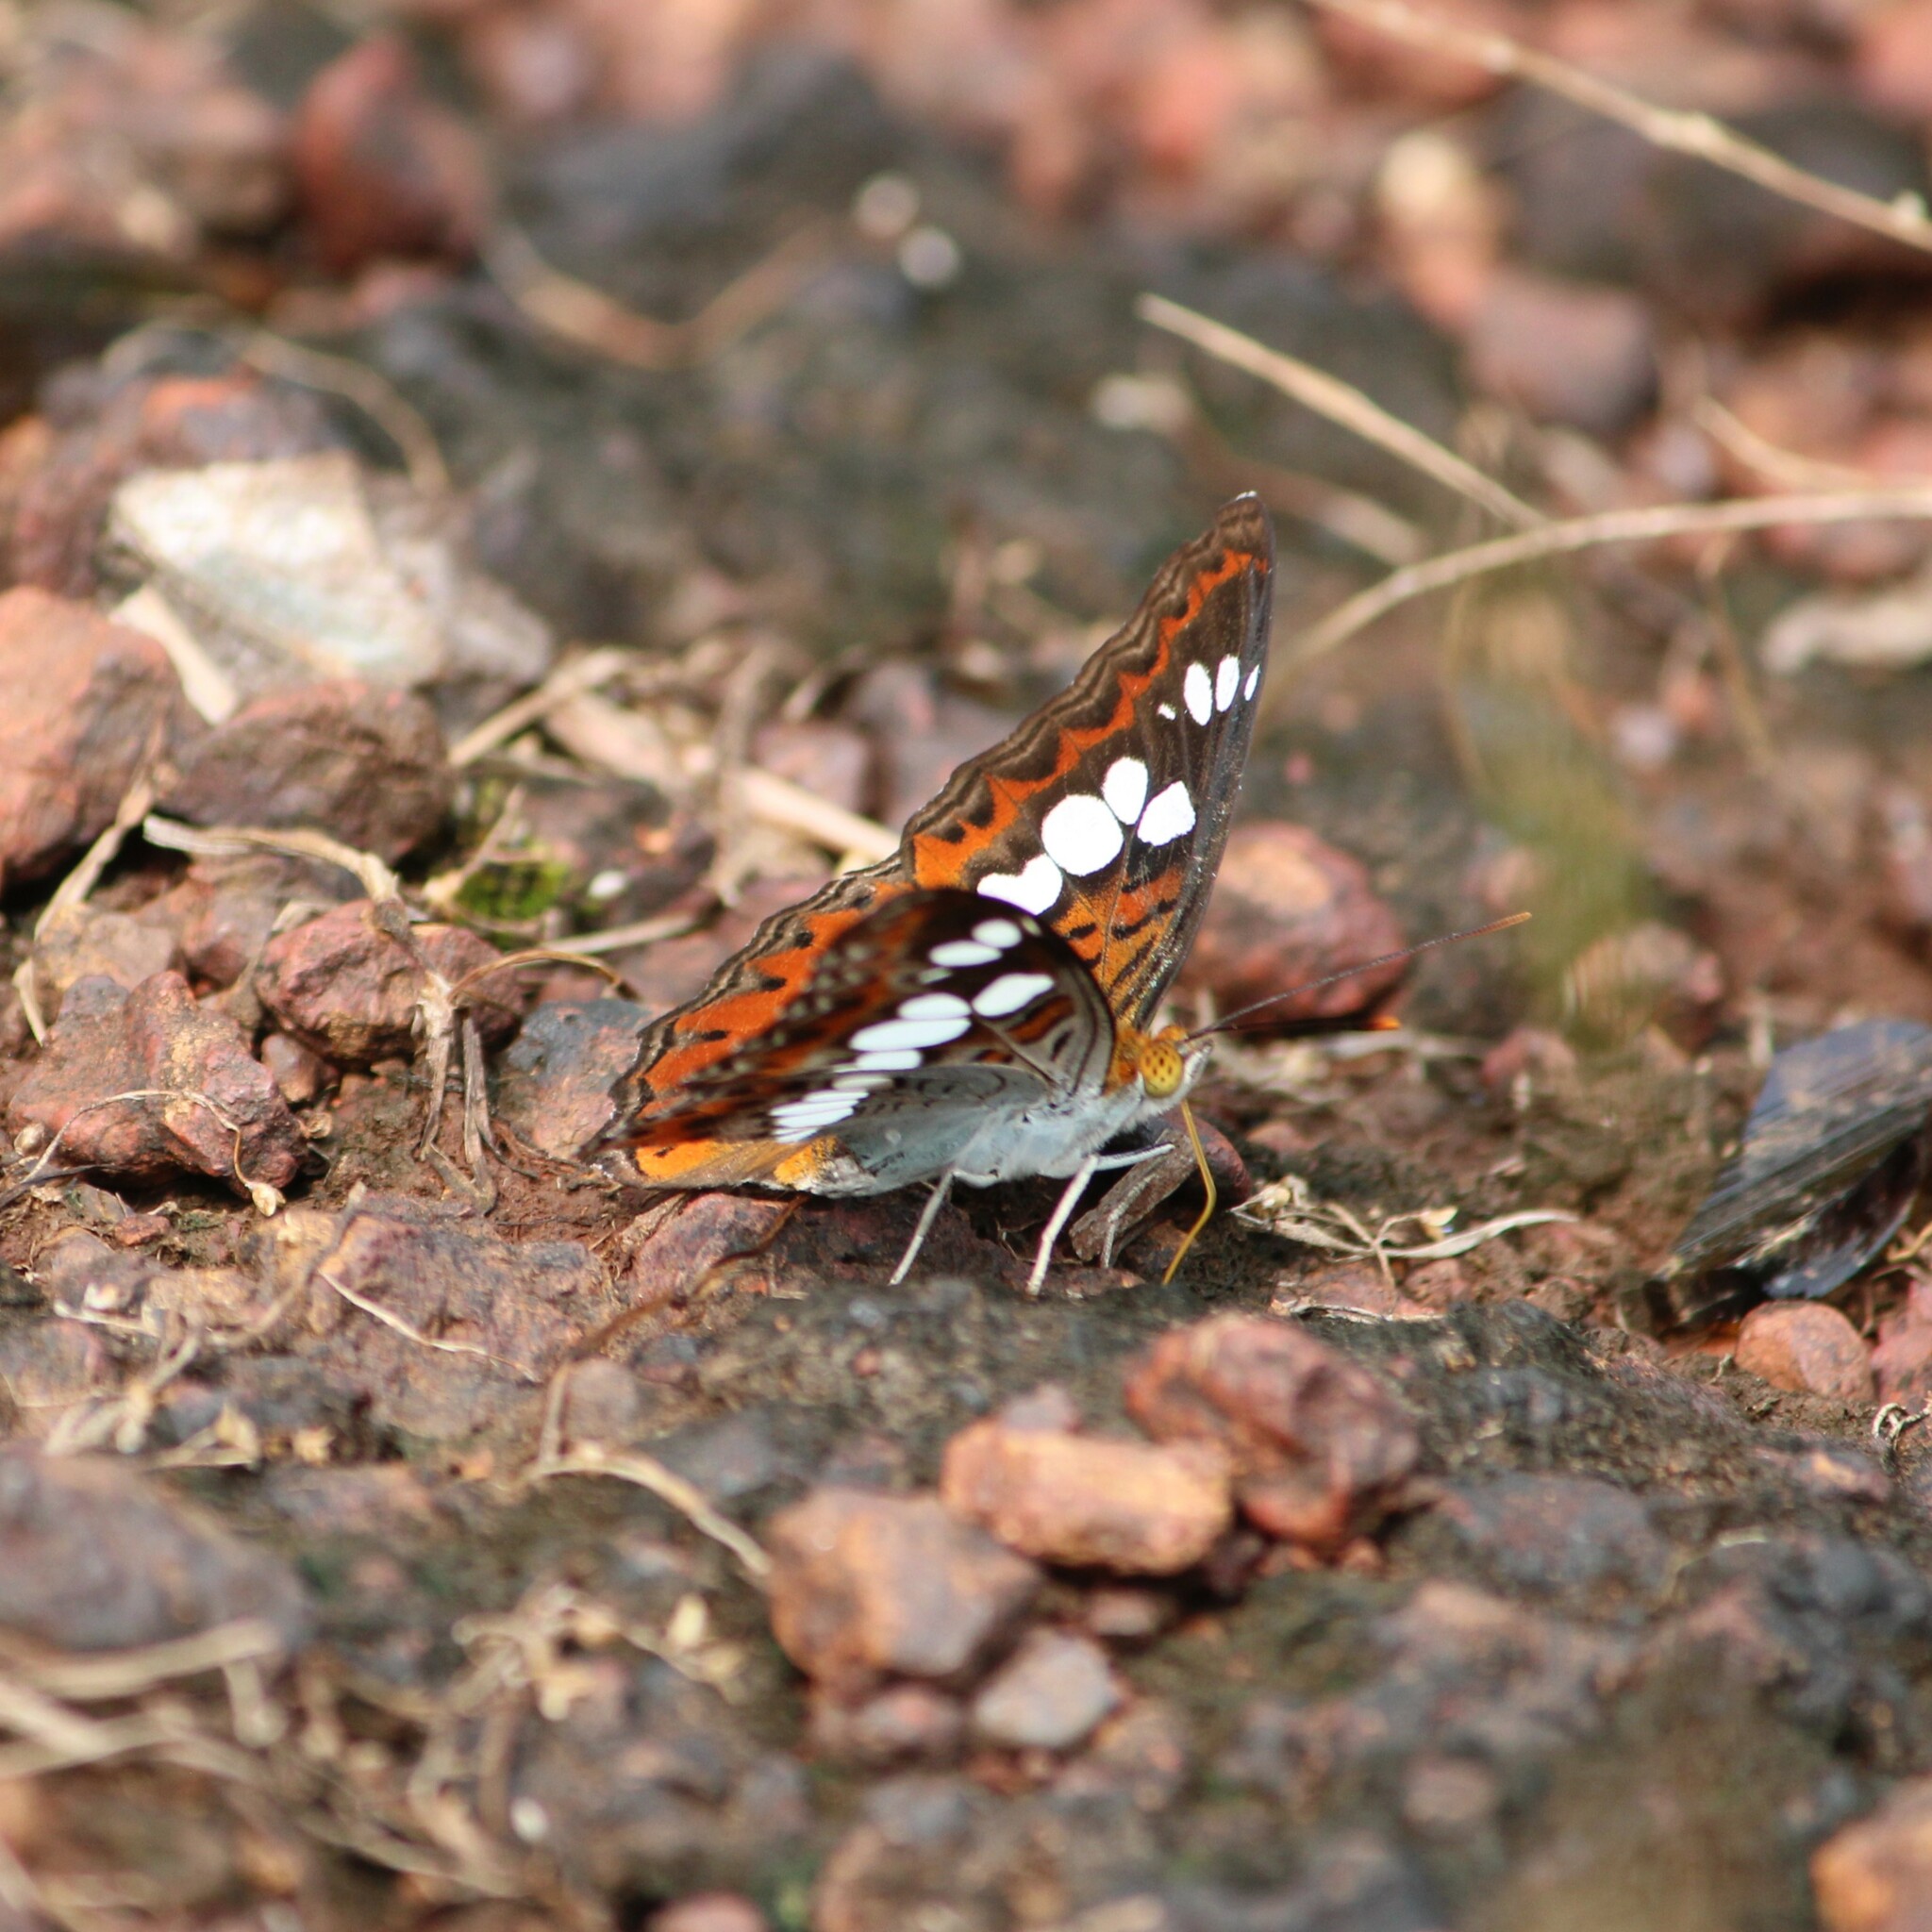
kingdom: Animalia
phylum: Arthropoda
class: Insecta
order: Lepidoptera
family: Nymphalidae
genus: Limenitis
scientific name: Limenitis Moduza procris
